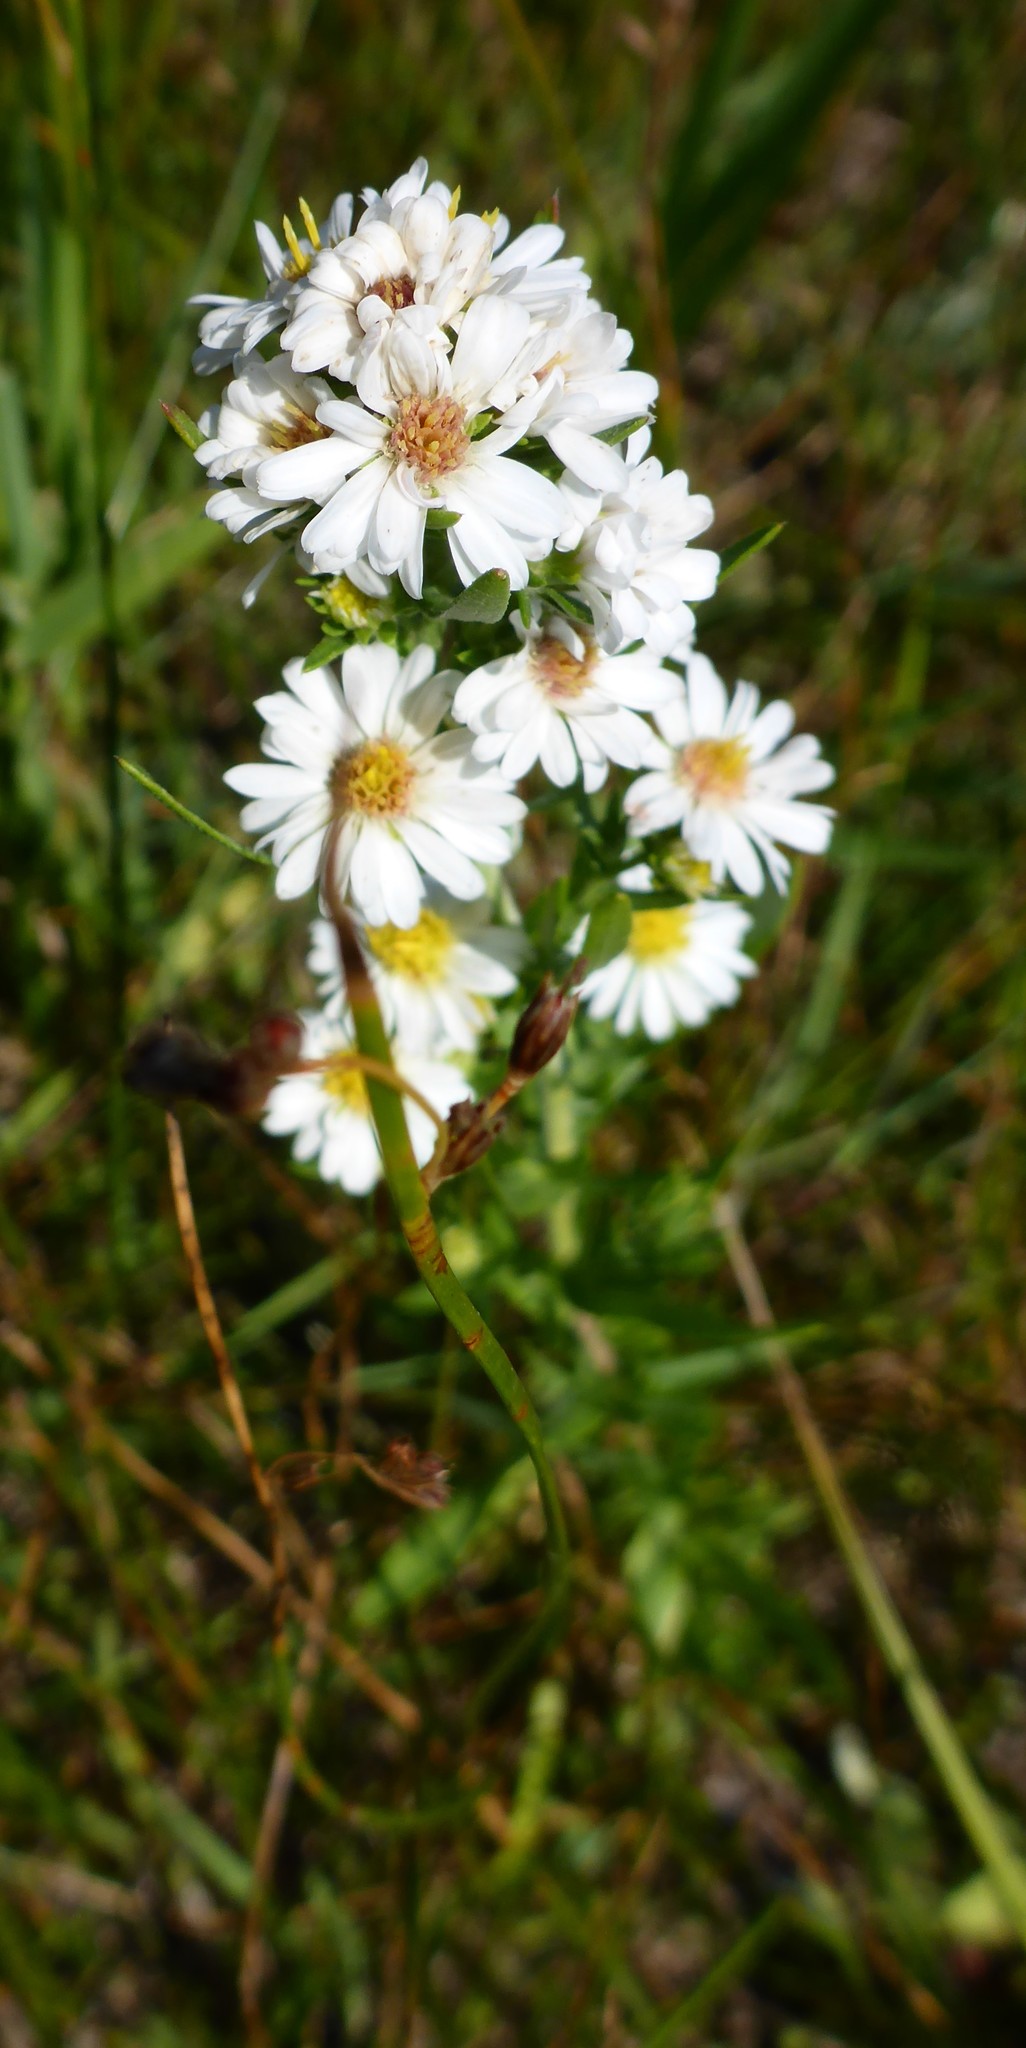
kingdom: Plantae
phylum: Tracheophyta
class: Magnoliopsida
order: Asterales
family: Asteraceae
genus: Symphyotrichum
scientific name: Symphyotrichum ericoides
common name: Heath aster
